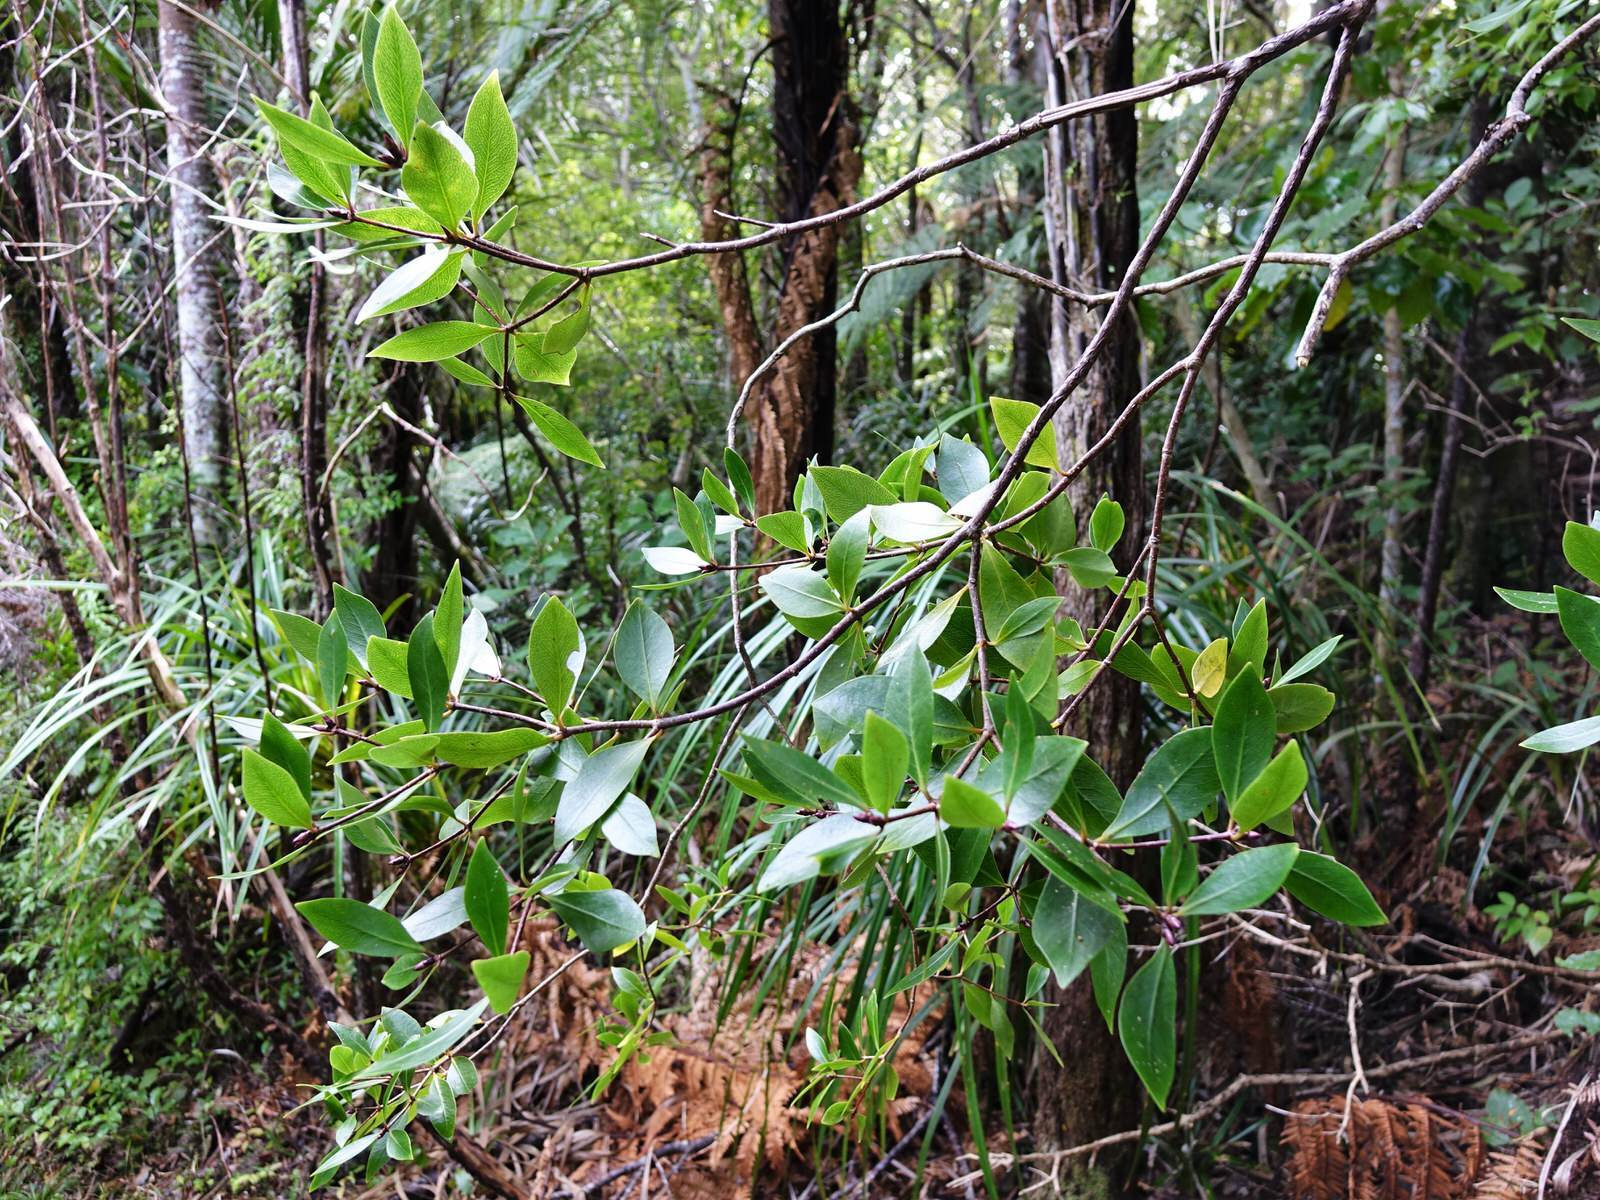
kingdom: Plantae
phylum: Tracheophyta
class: Magnoliopsida
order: Apiales
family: Pittosporaceae
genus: Pittosporum
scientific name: Pittosporum cornifolium
